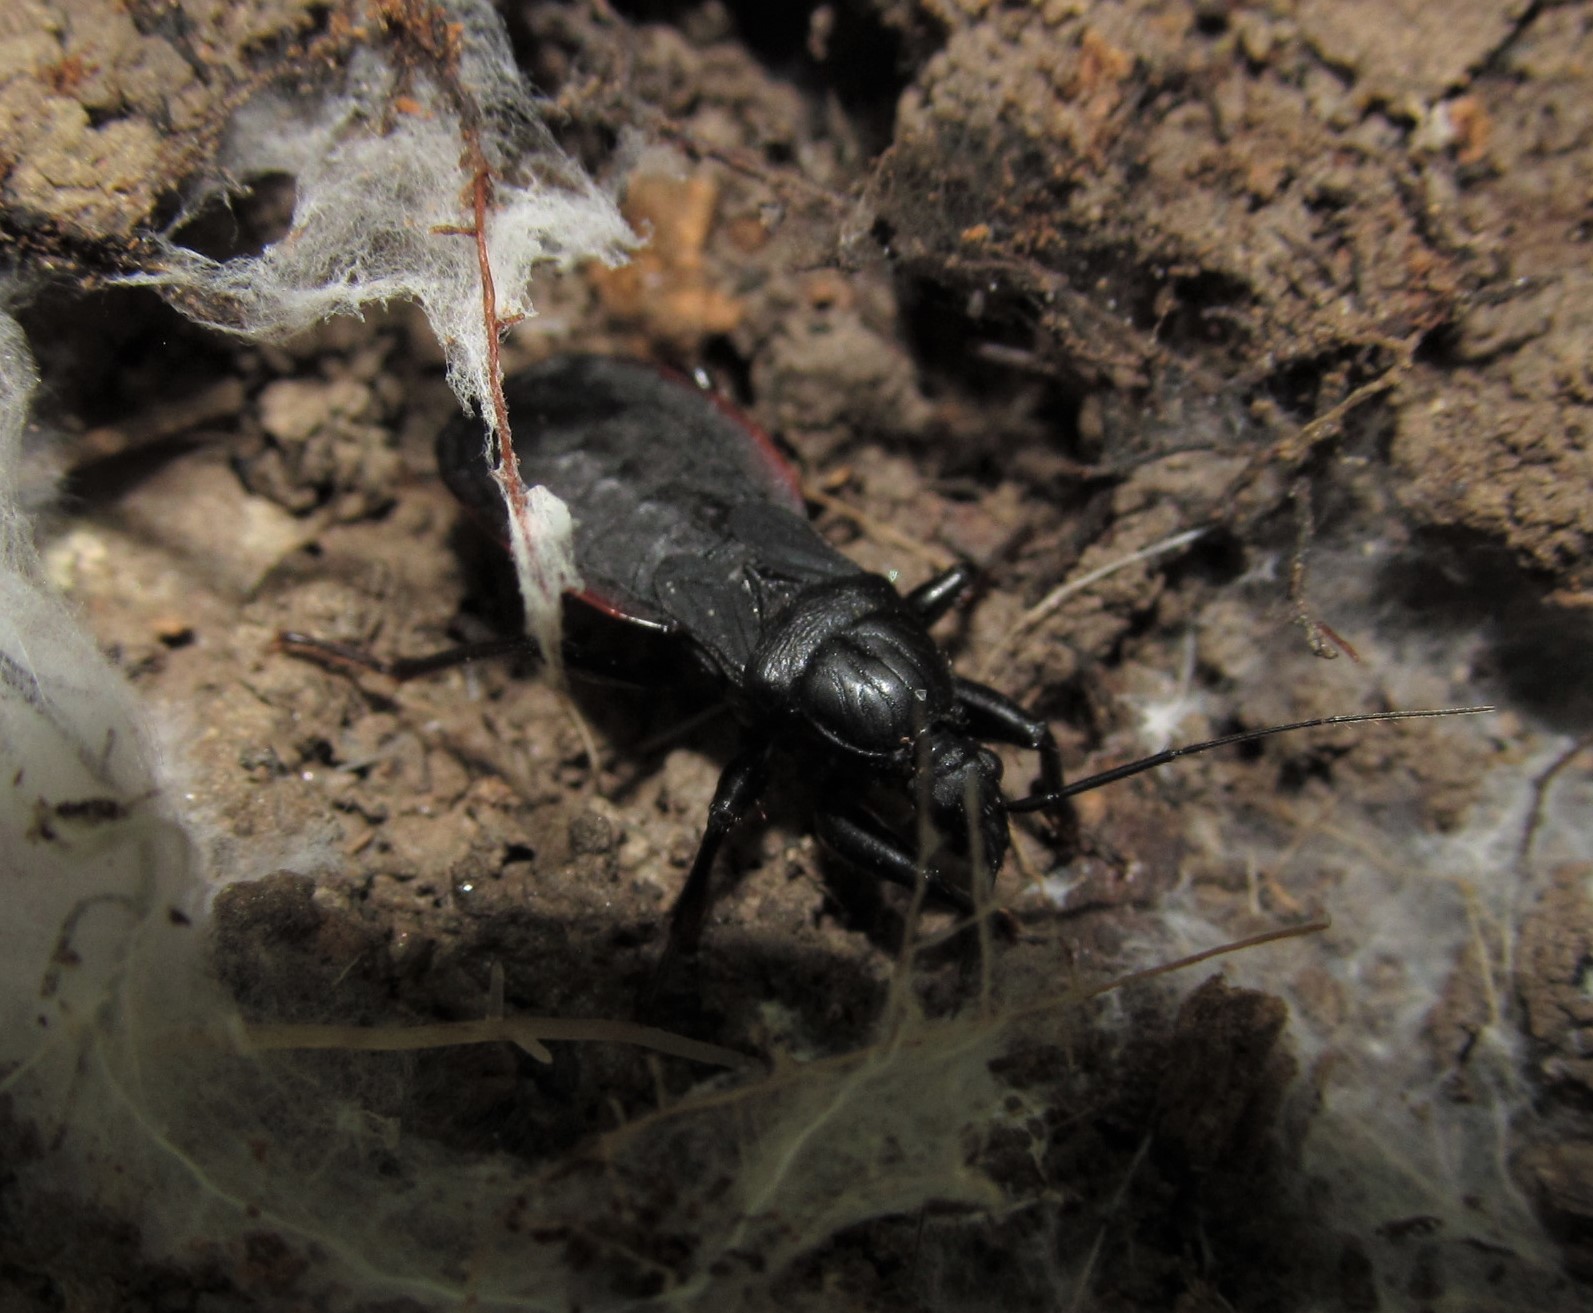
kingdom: Animalia
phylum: Arthropoda
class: Insecta
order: Hemiptera
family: Reduviidae
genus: Melanolestes
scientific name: Melanolestes picipes
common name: Assassin bug
